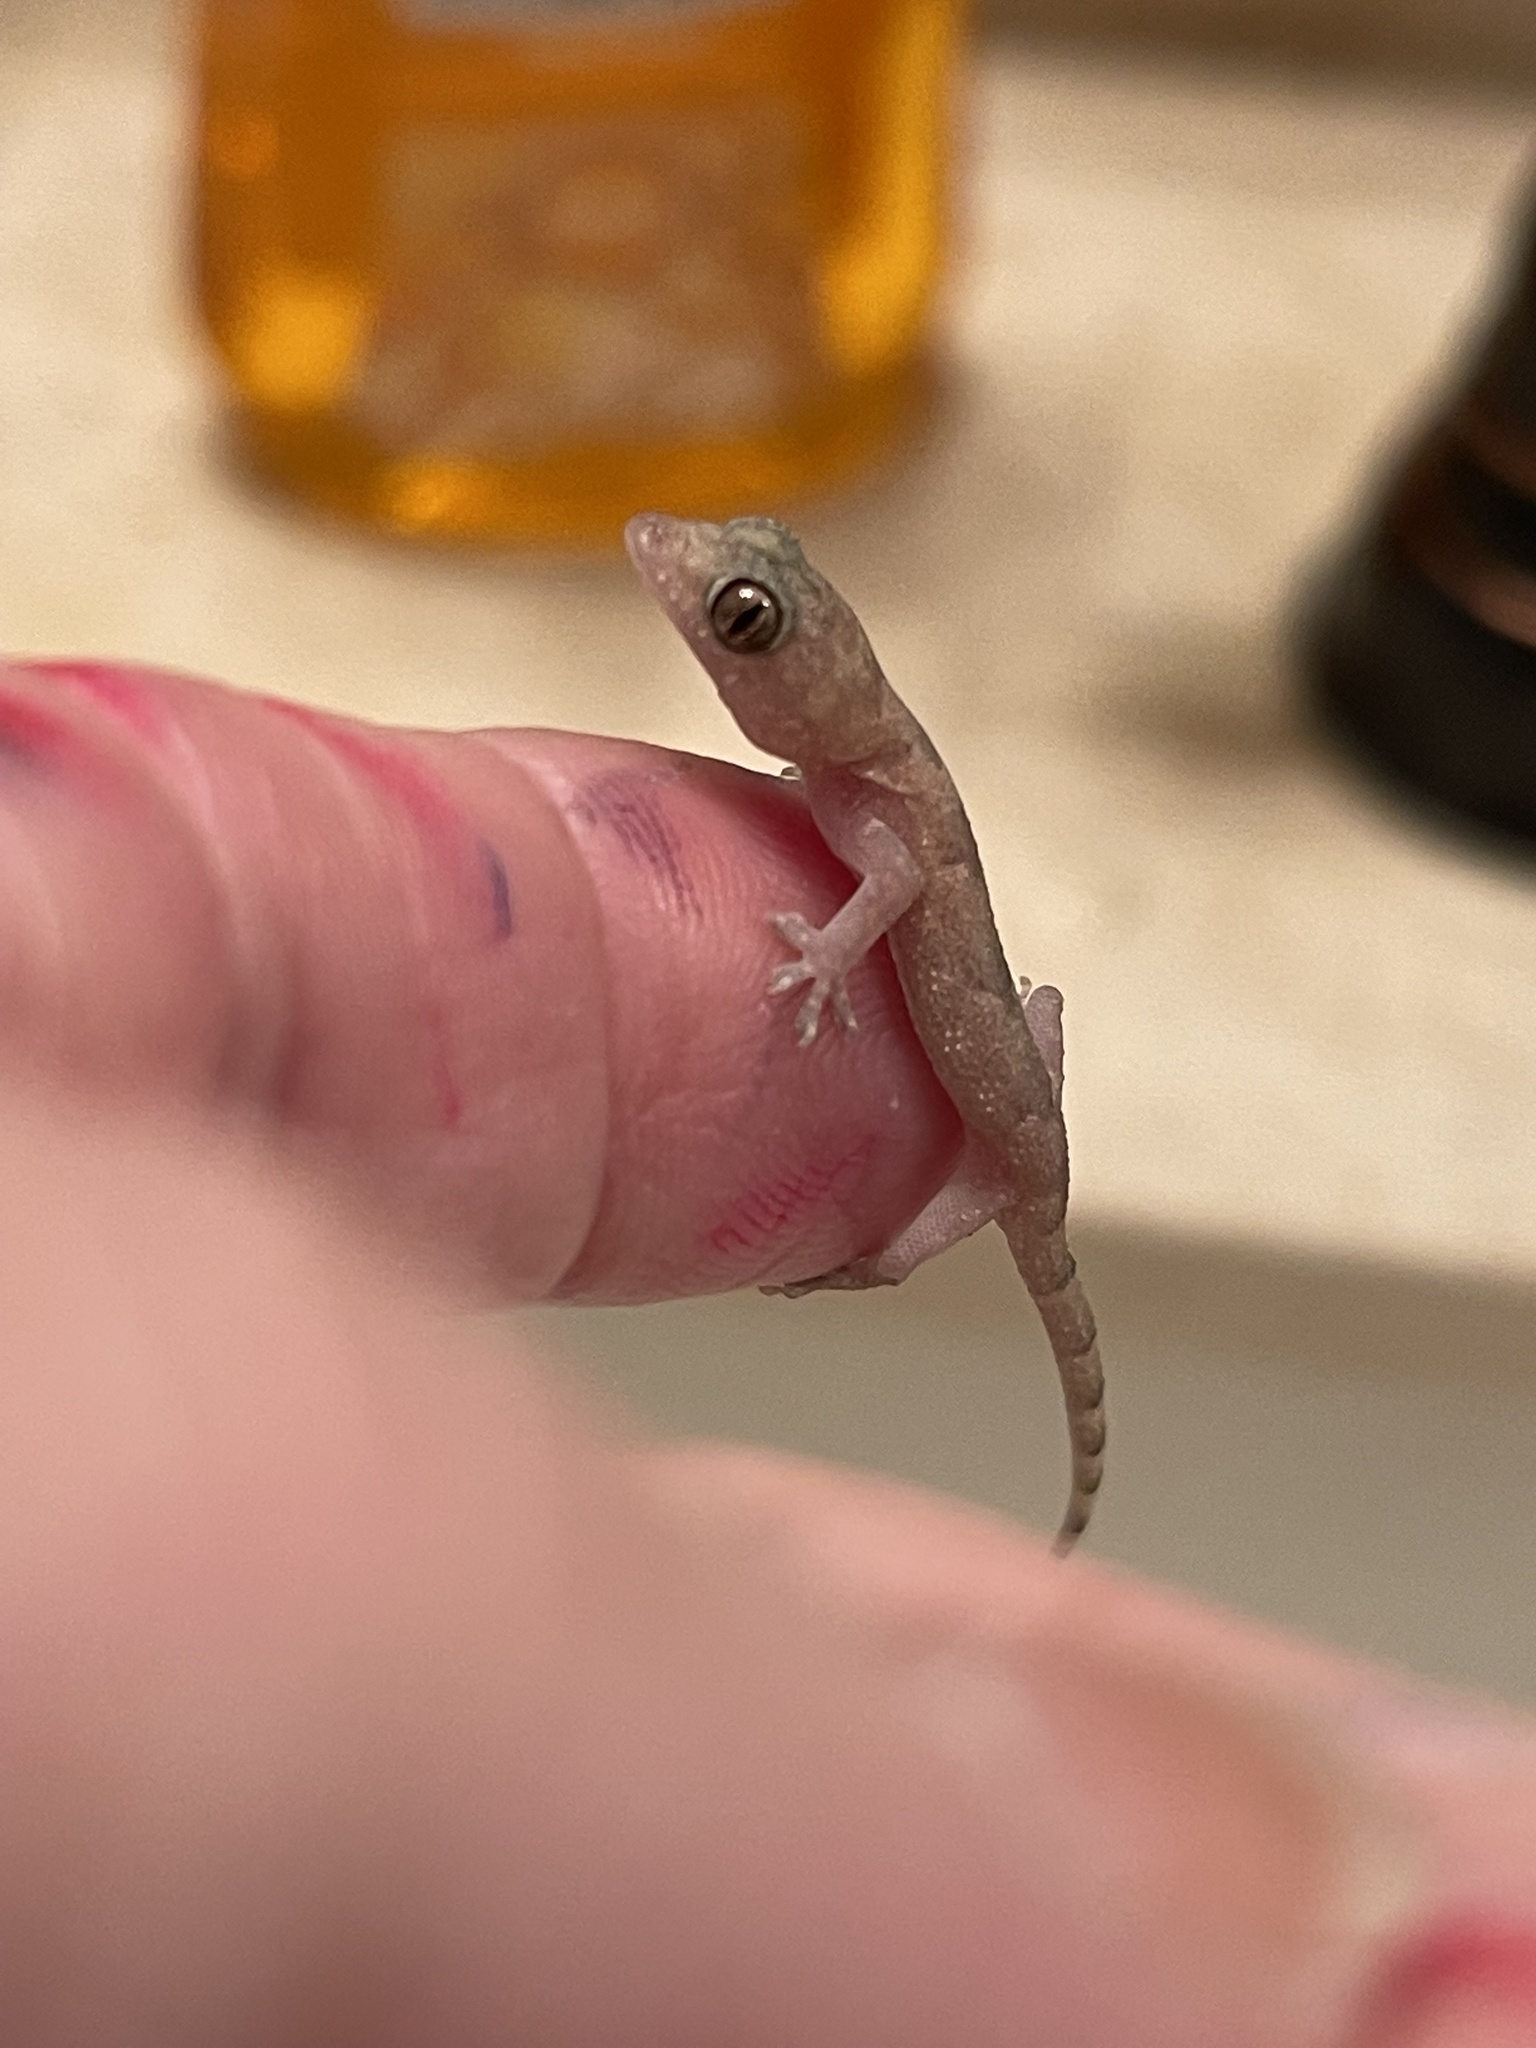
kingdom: Animalia
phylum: Chordata
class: Squamata
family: Gekkonidae
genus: Hemidactylus
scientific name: Hemidactylus mabouia
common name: House gecko
